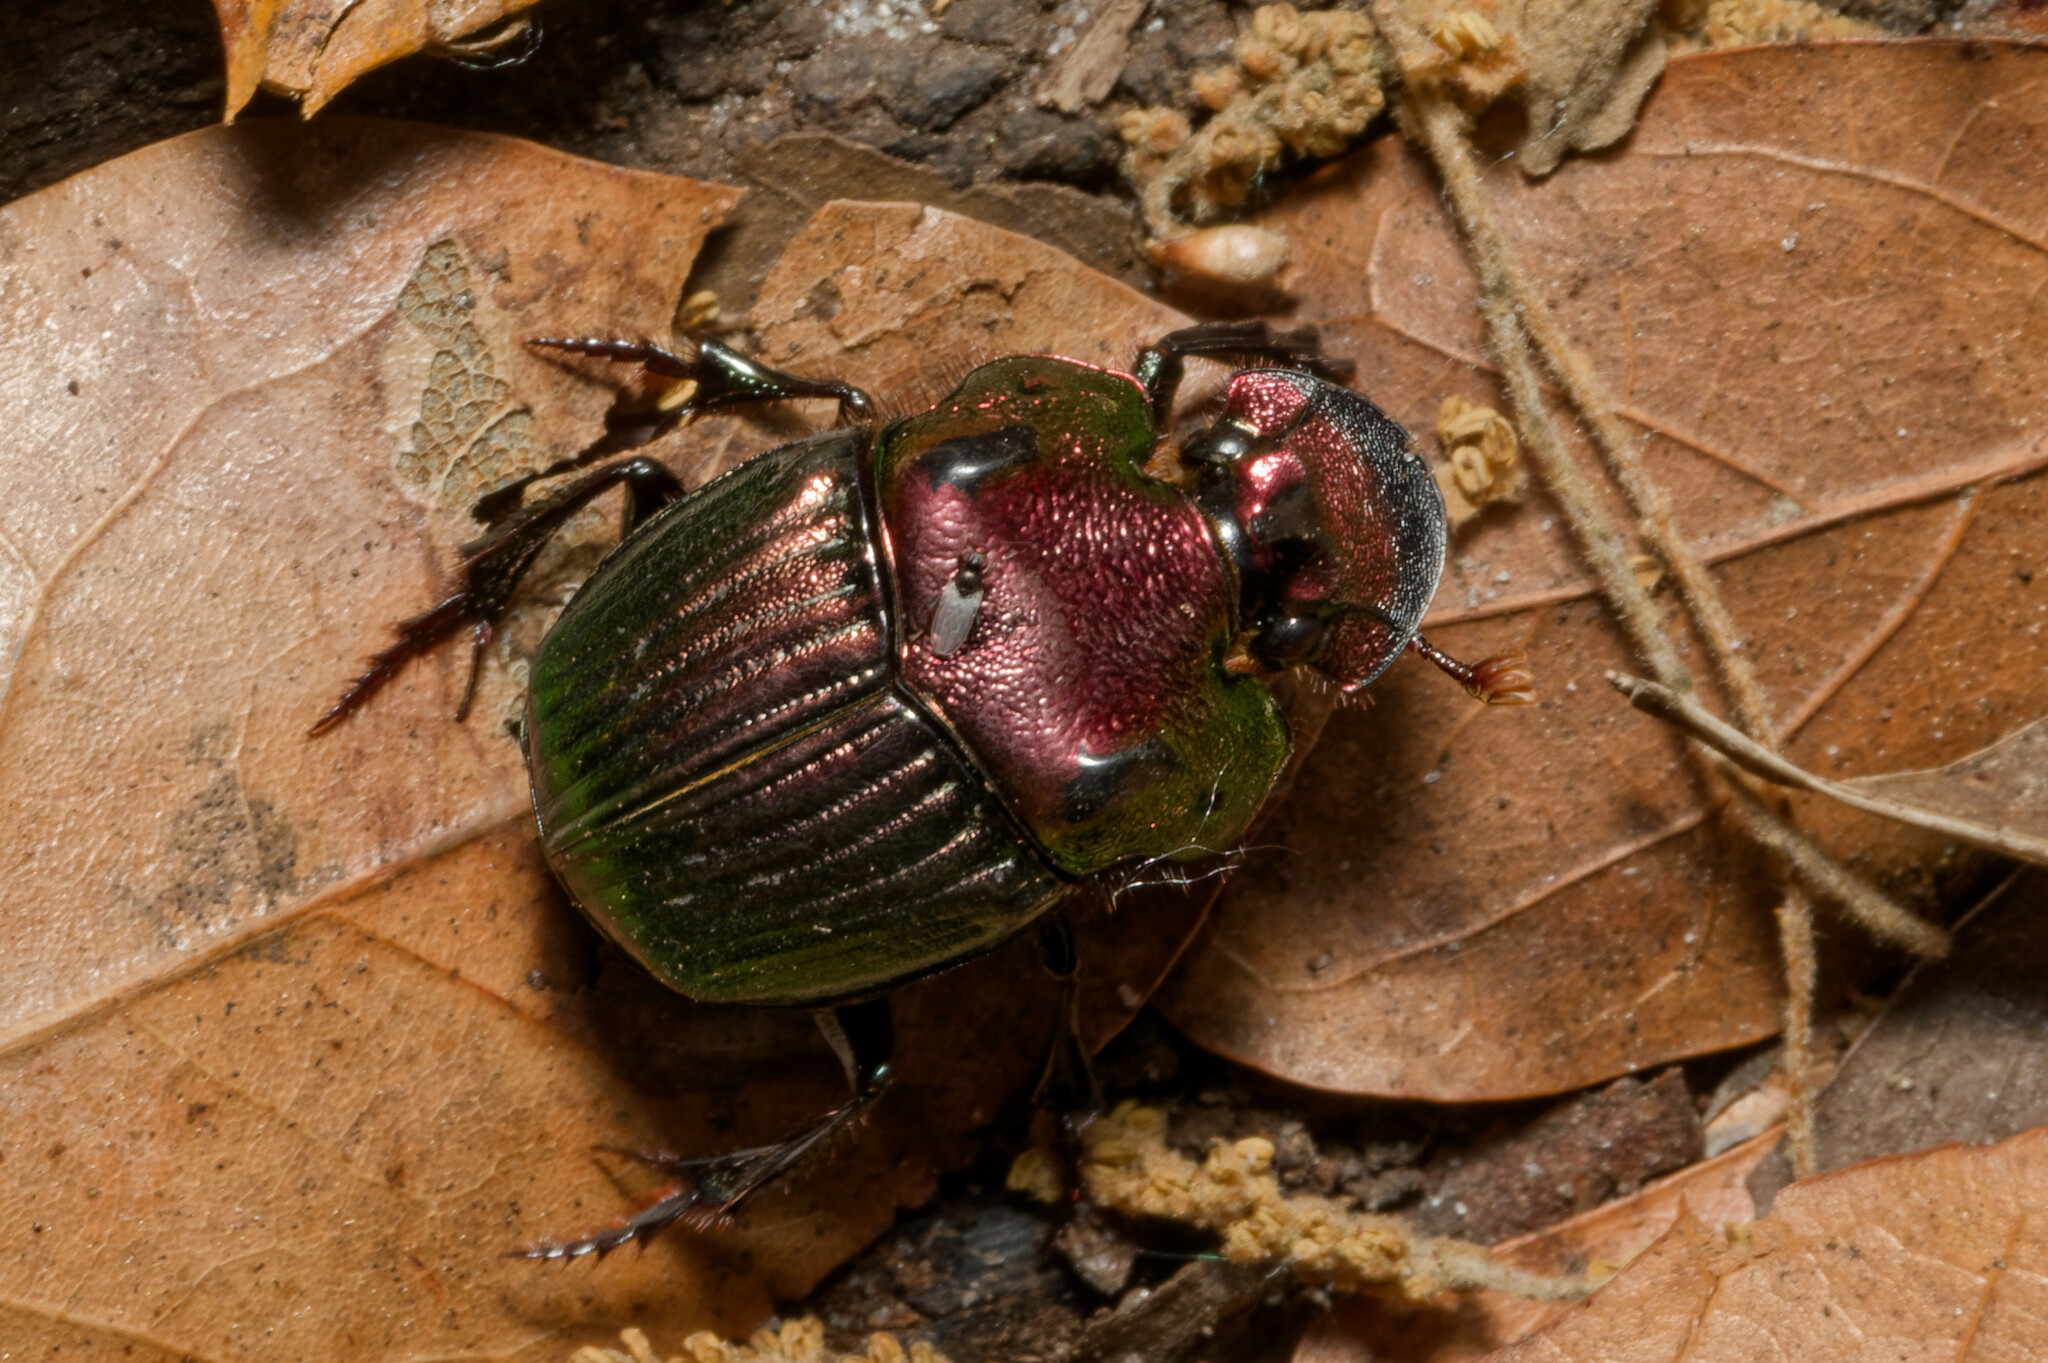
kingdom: Animalia
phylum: Arthropoda
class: Insecta
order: Coleoptera
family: Scarabaeidae
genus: Phanaeus
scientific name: Phanaeus igneus
